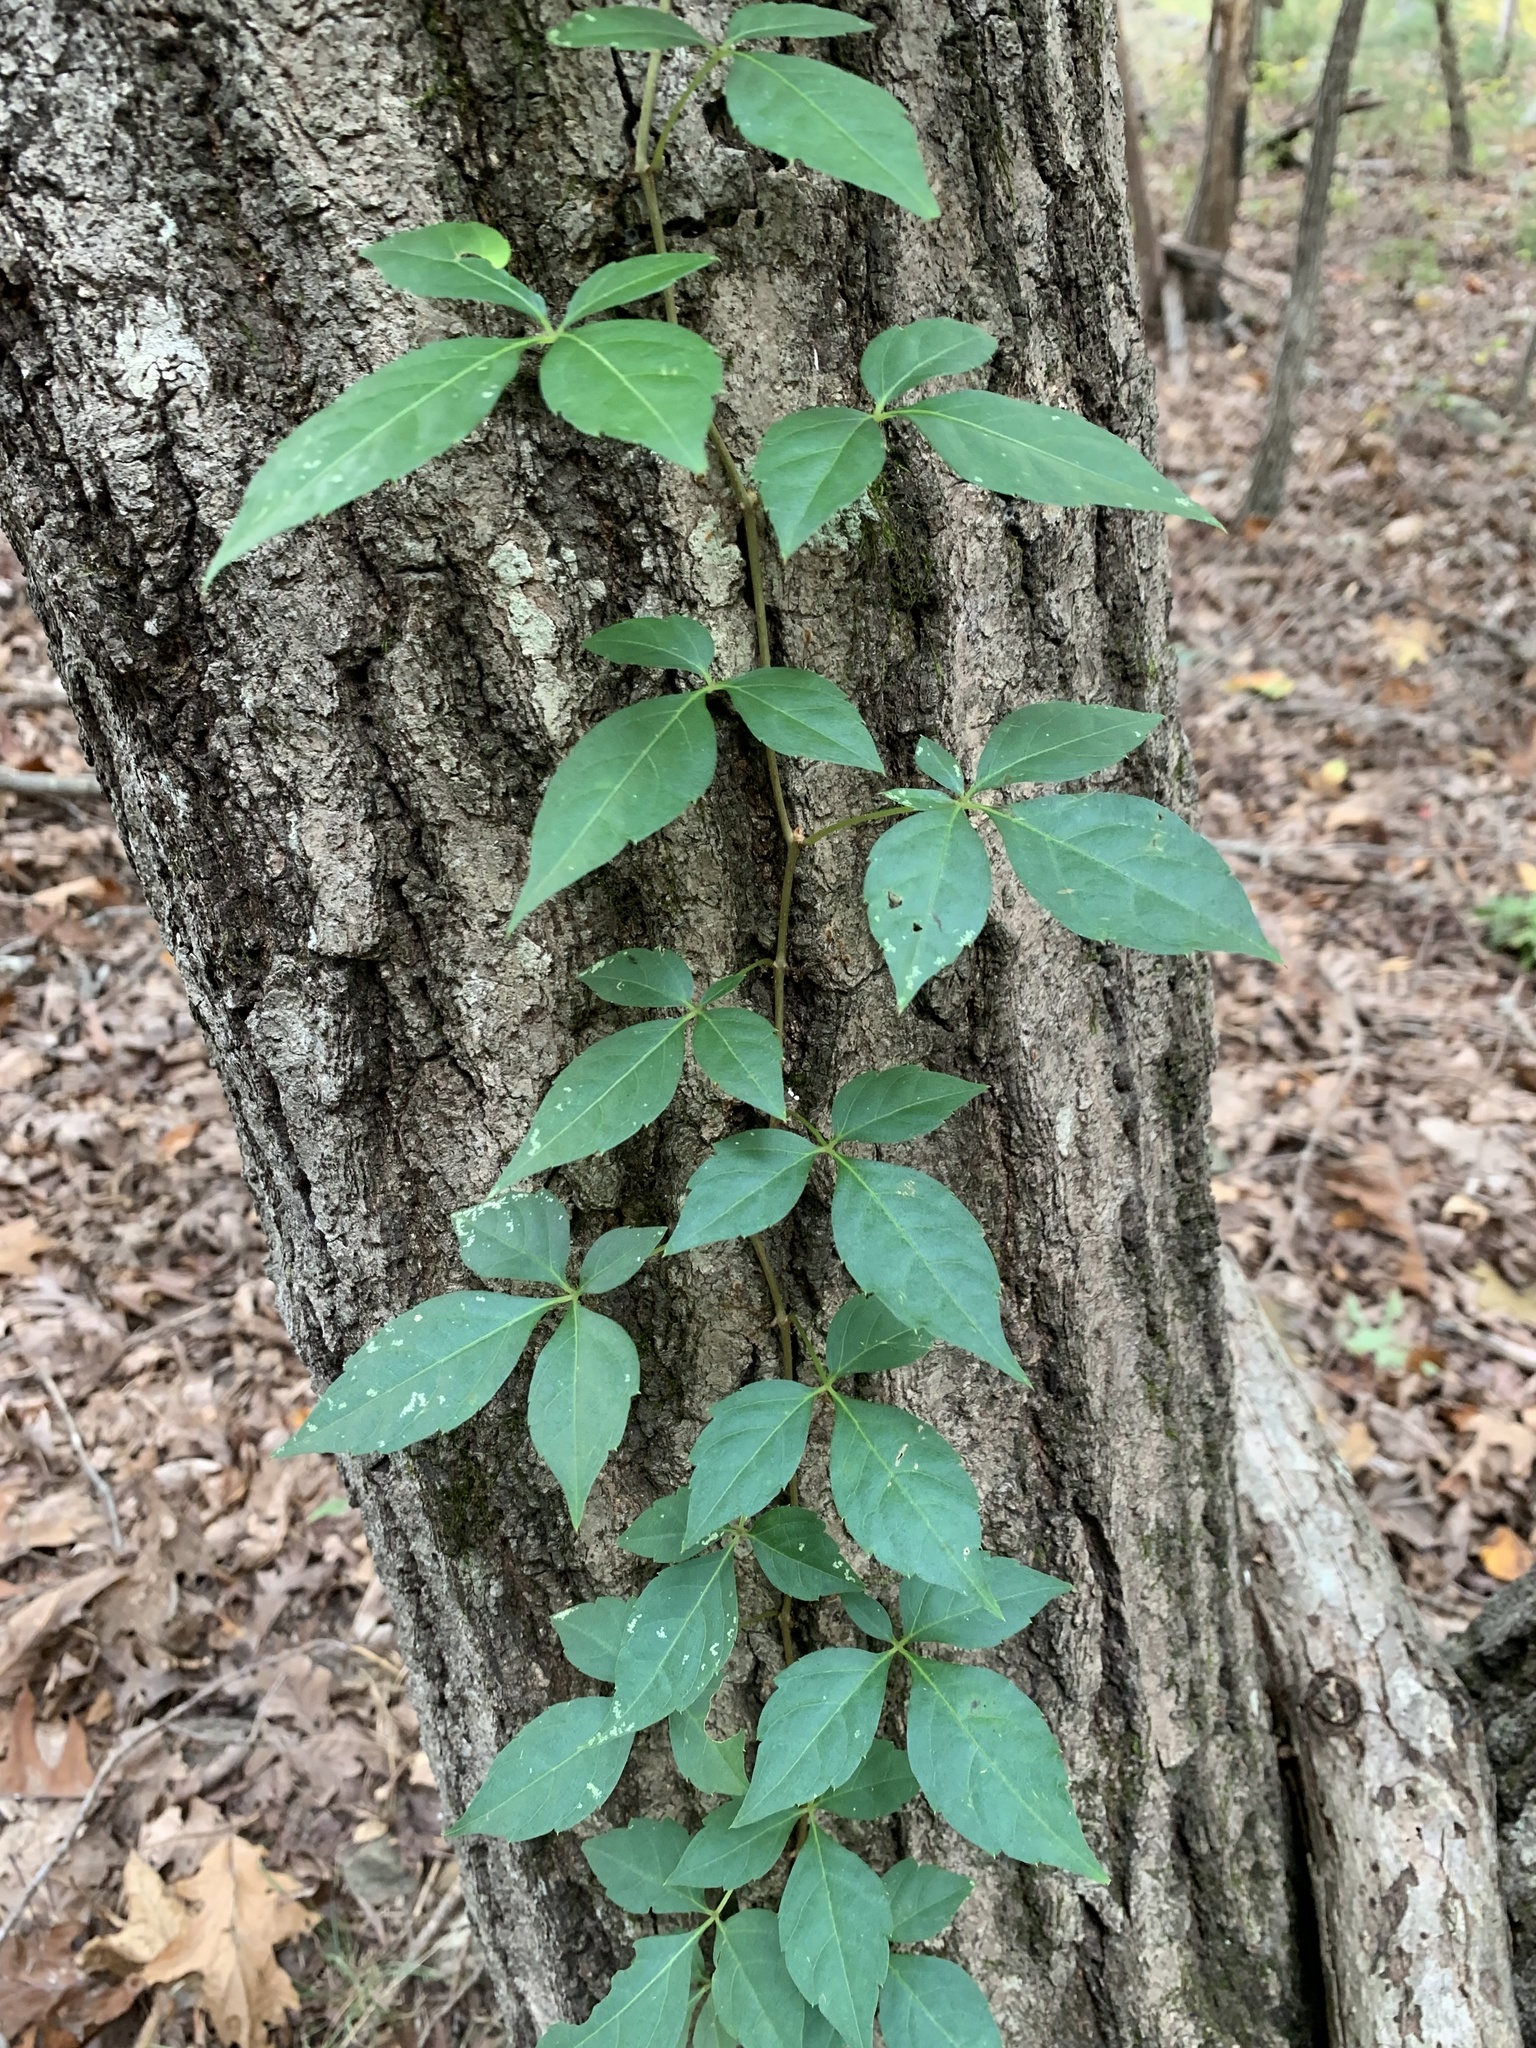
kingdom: Plantae
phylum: Tracheophyta
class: Magnoliopsida
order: Vitales
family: Vitaceae
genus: Parthenocissus
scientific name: Parthenocissus quinquefolia
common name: Virginia-creeper
